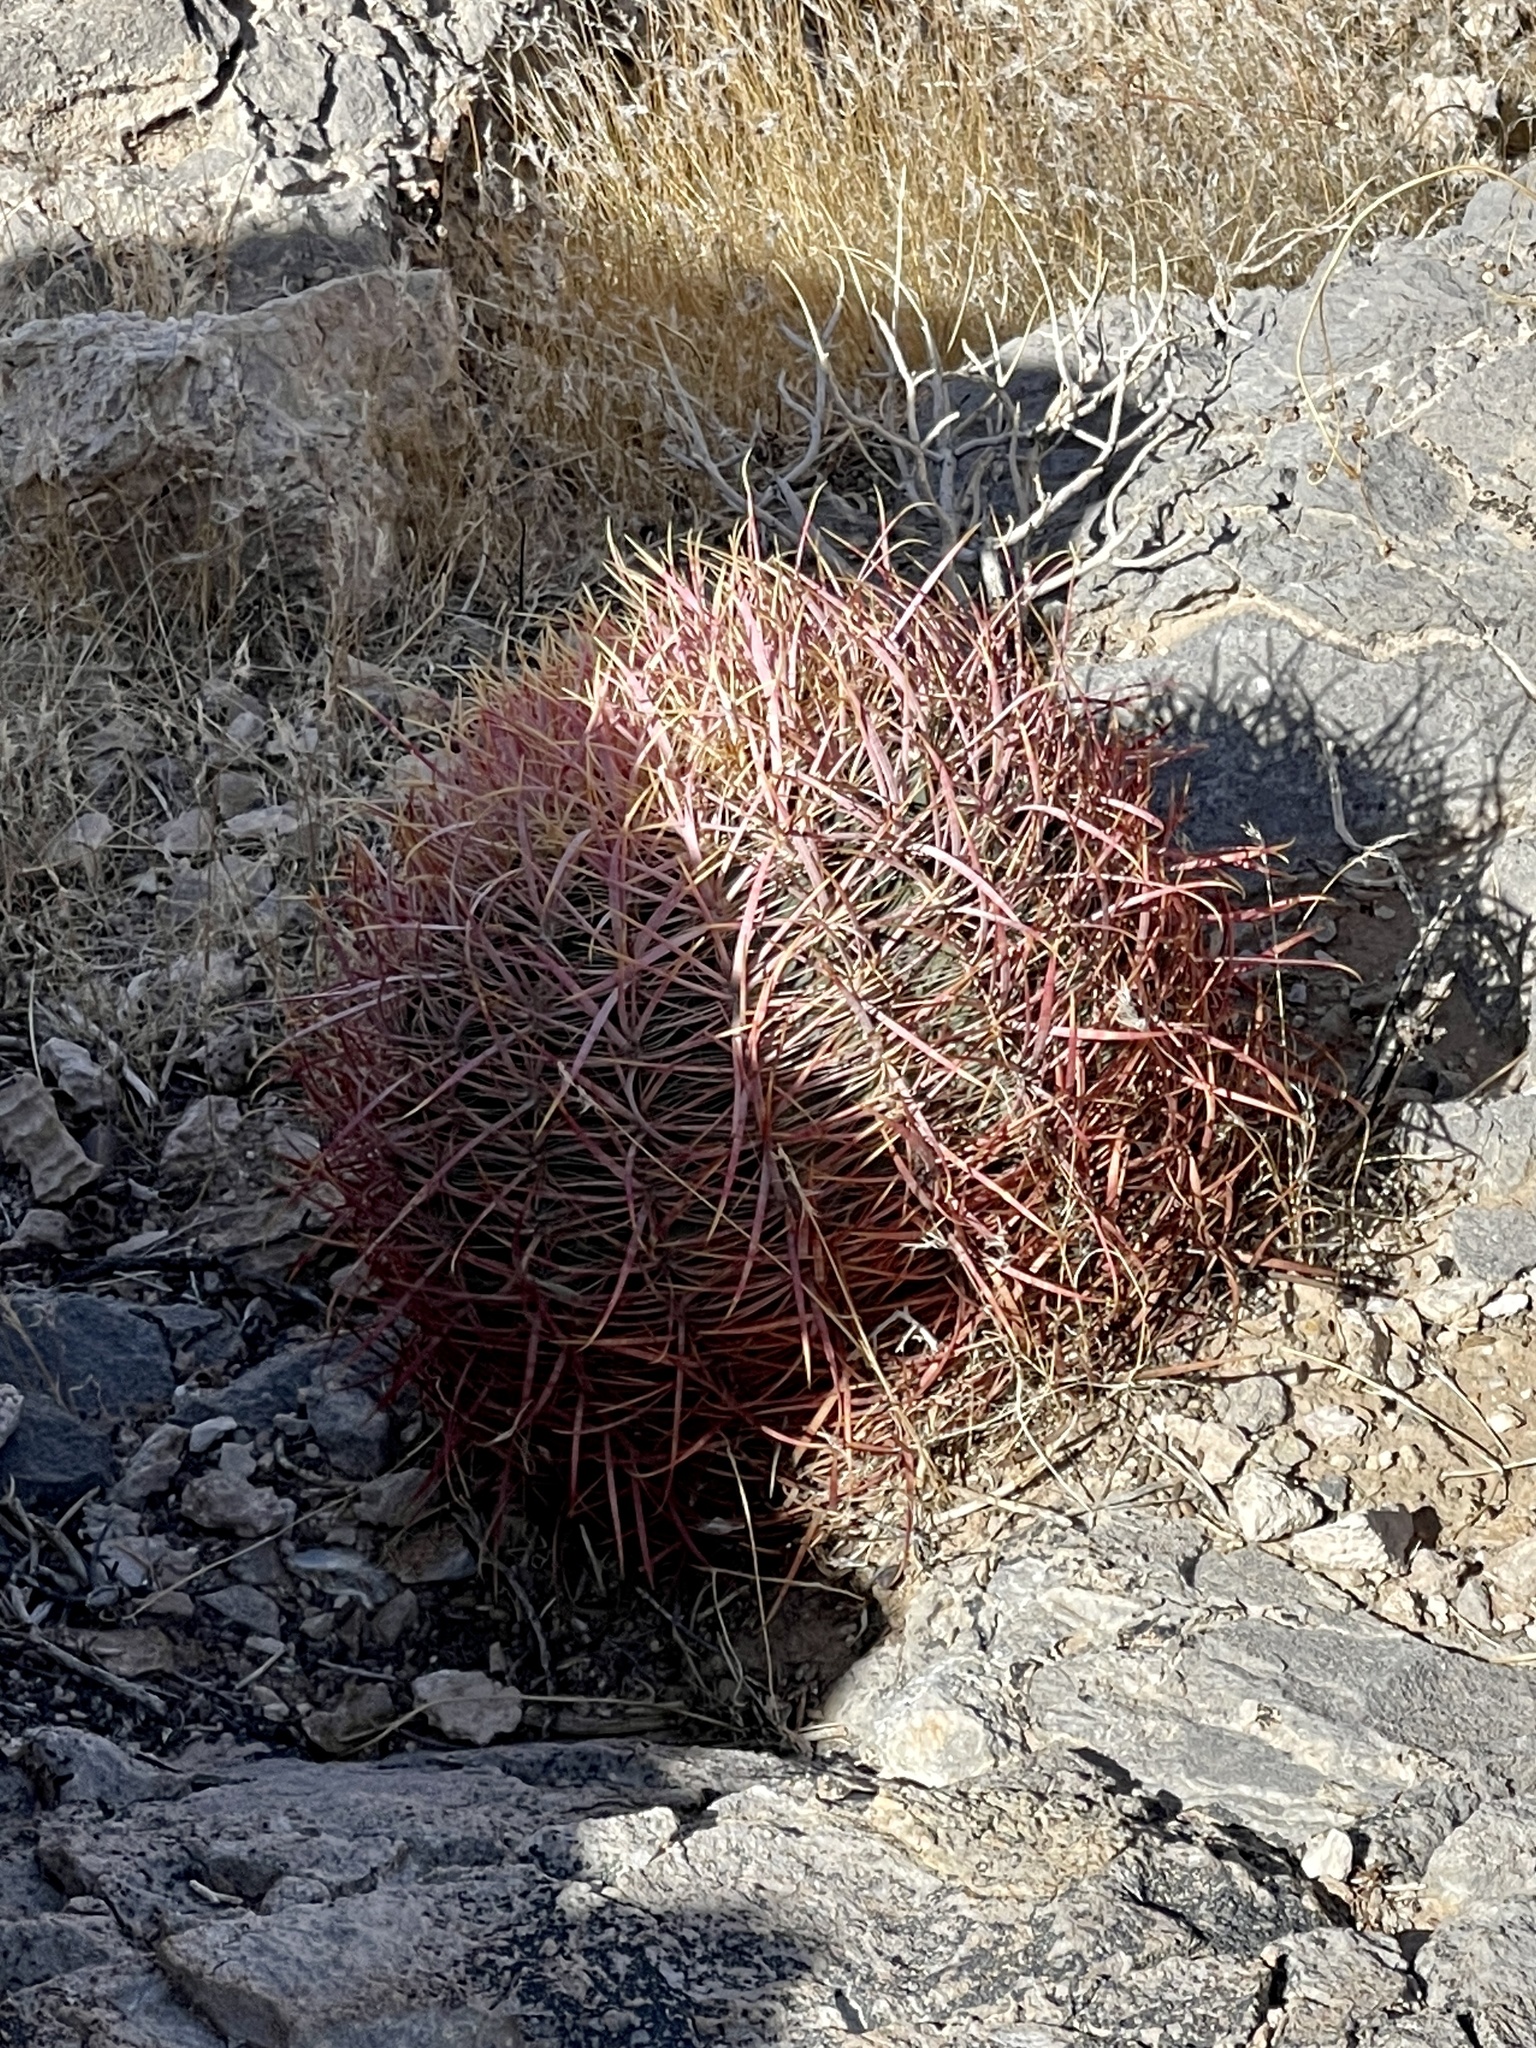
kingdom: Plantae
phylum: Tracheophyta
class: Magnoliopsida
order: Caryophyllales
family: Cactaceae
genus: Ferocactus
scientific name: Ferocactus cylindraceus
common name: California barrel cactus
